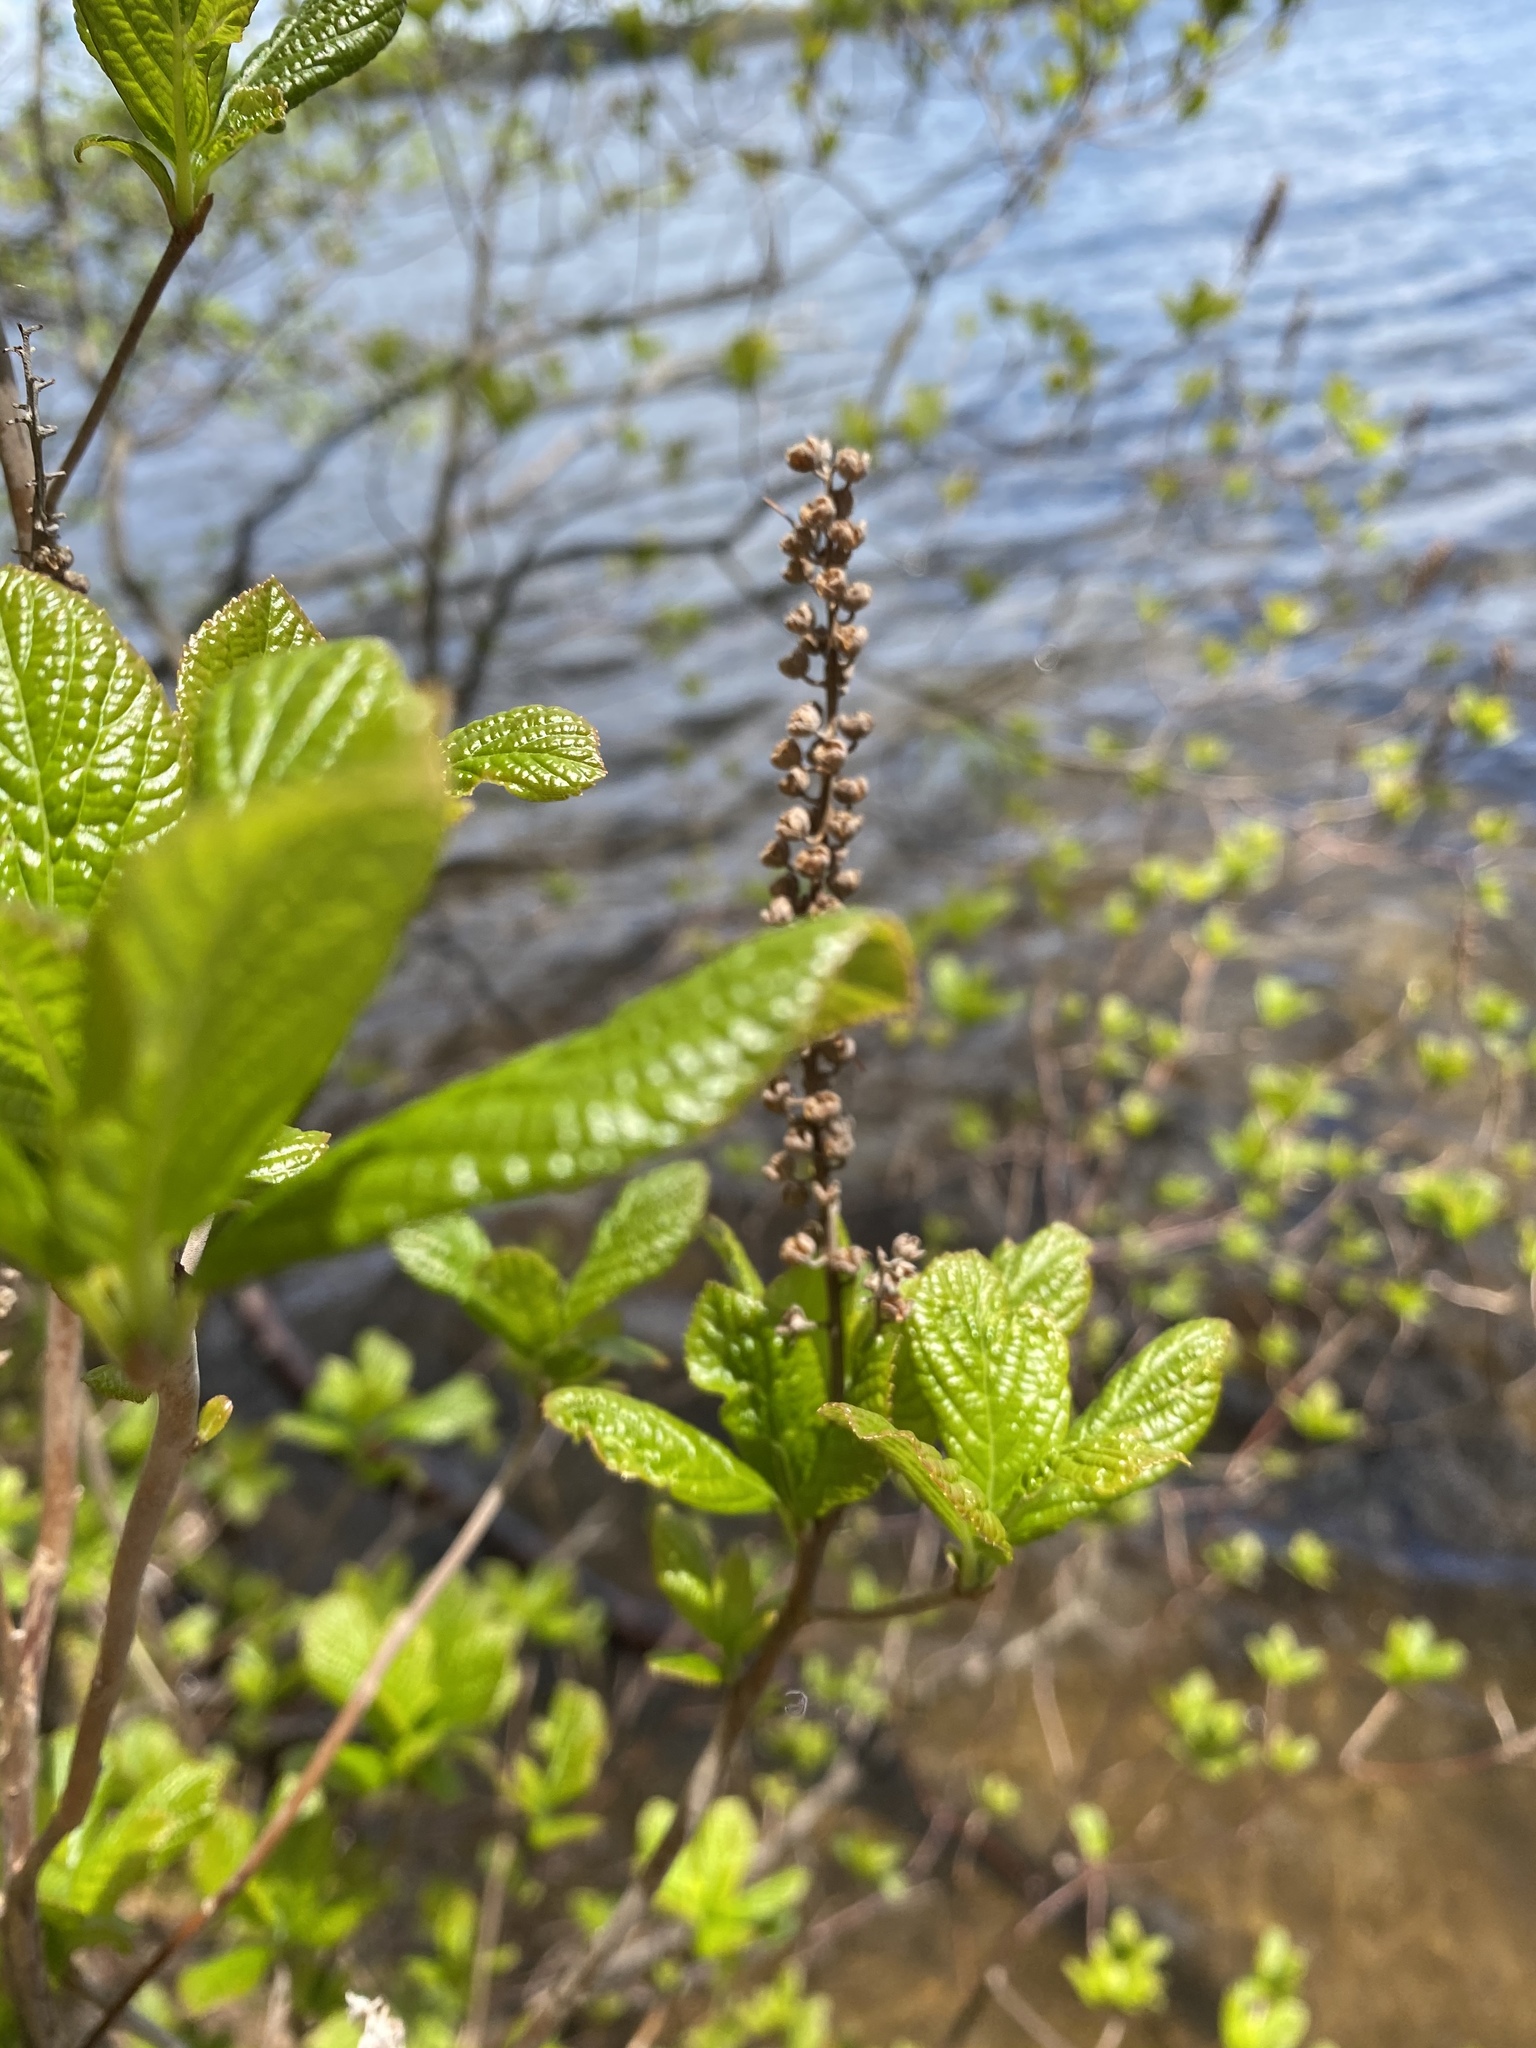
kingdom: Plantae
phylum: Tracheophyta
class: Magnoliopsida
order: Ericales
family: Clethraceae
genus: Clethra
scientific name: Clethra alnifolia
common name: Sweet pepperbush
